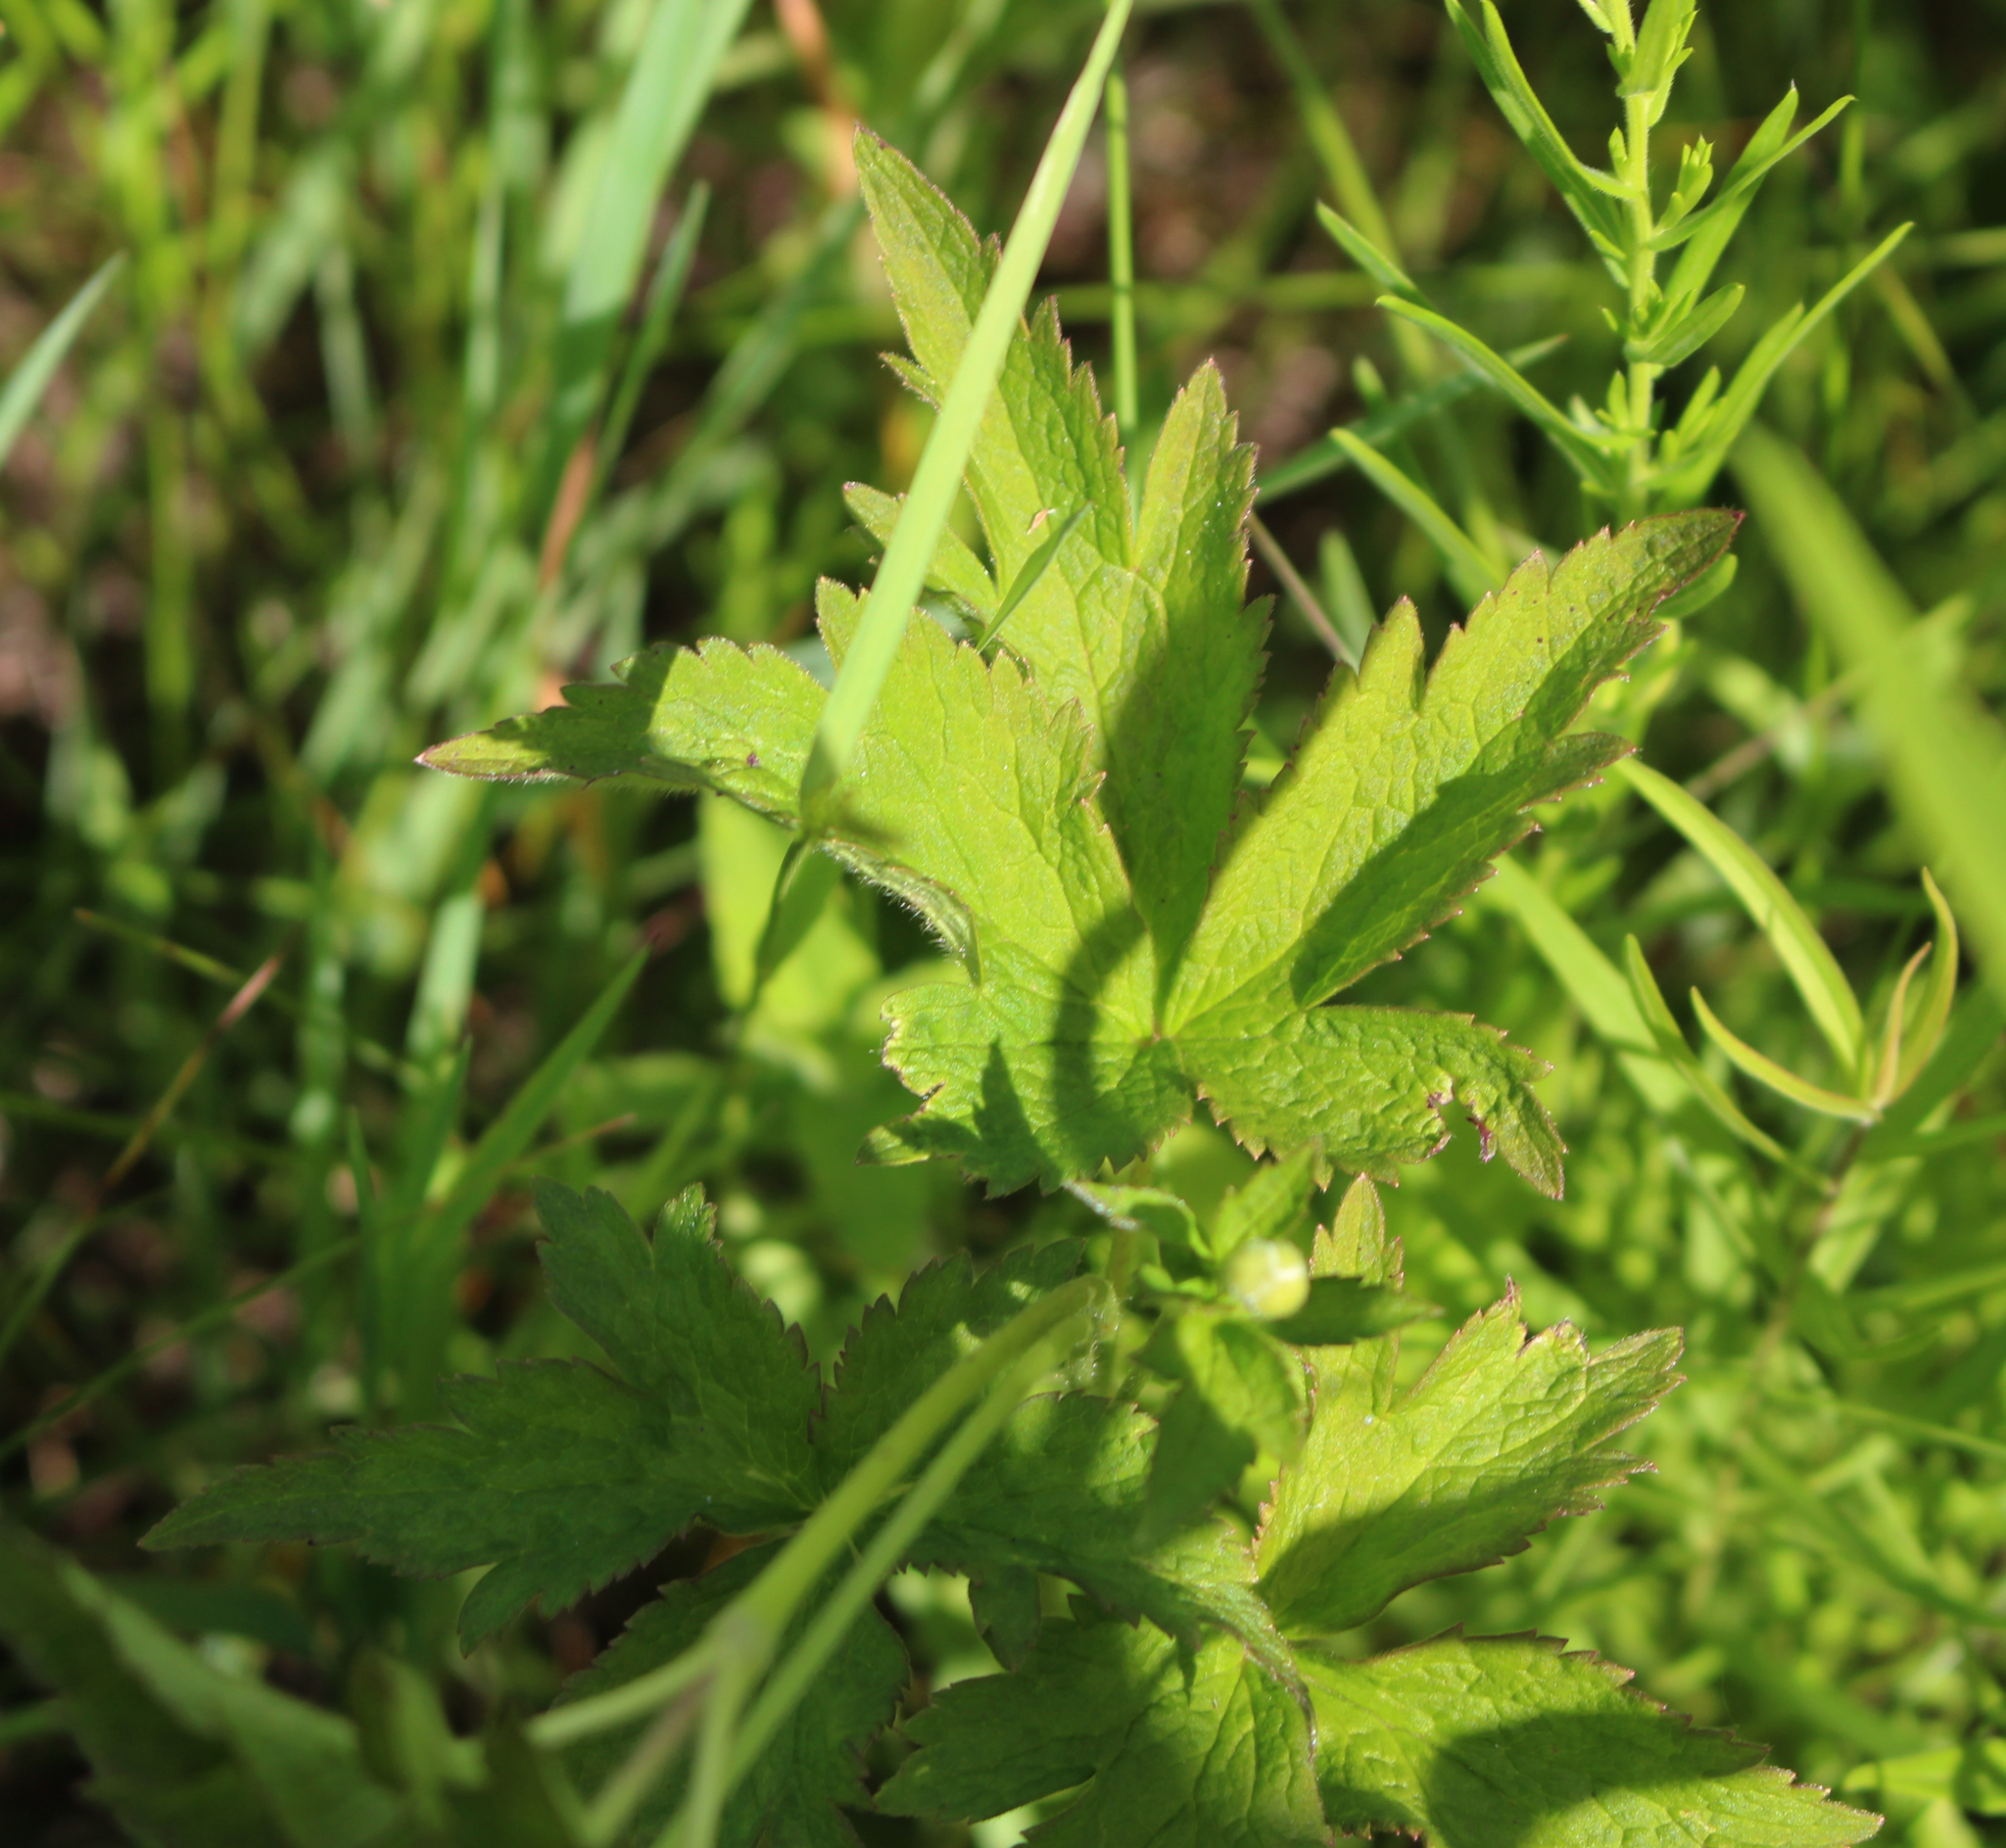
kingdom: Plantae
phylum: Tracheophyta
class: Magnoliopsida
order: Ranunculales
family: Ranunculaceae
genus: Anemone
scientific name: Anemone virginiana
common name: Tall anemone
